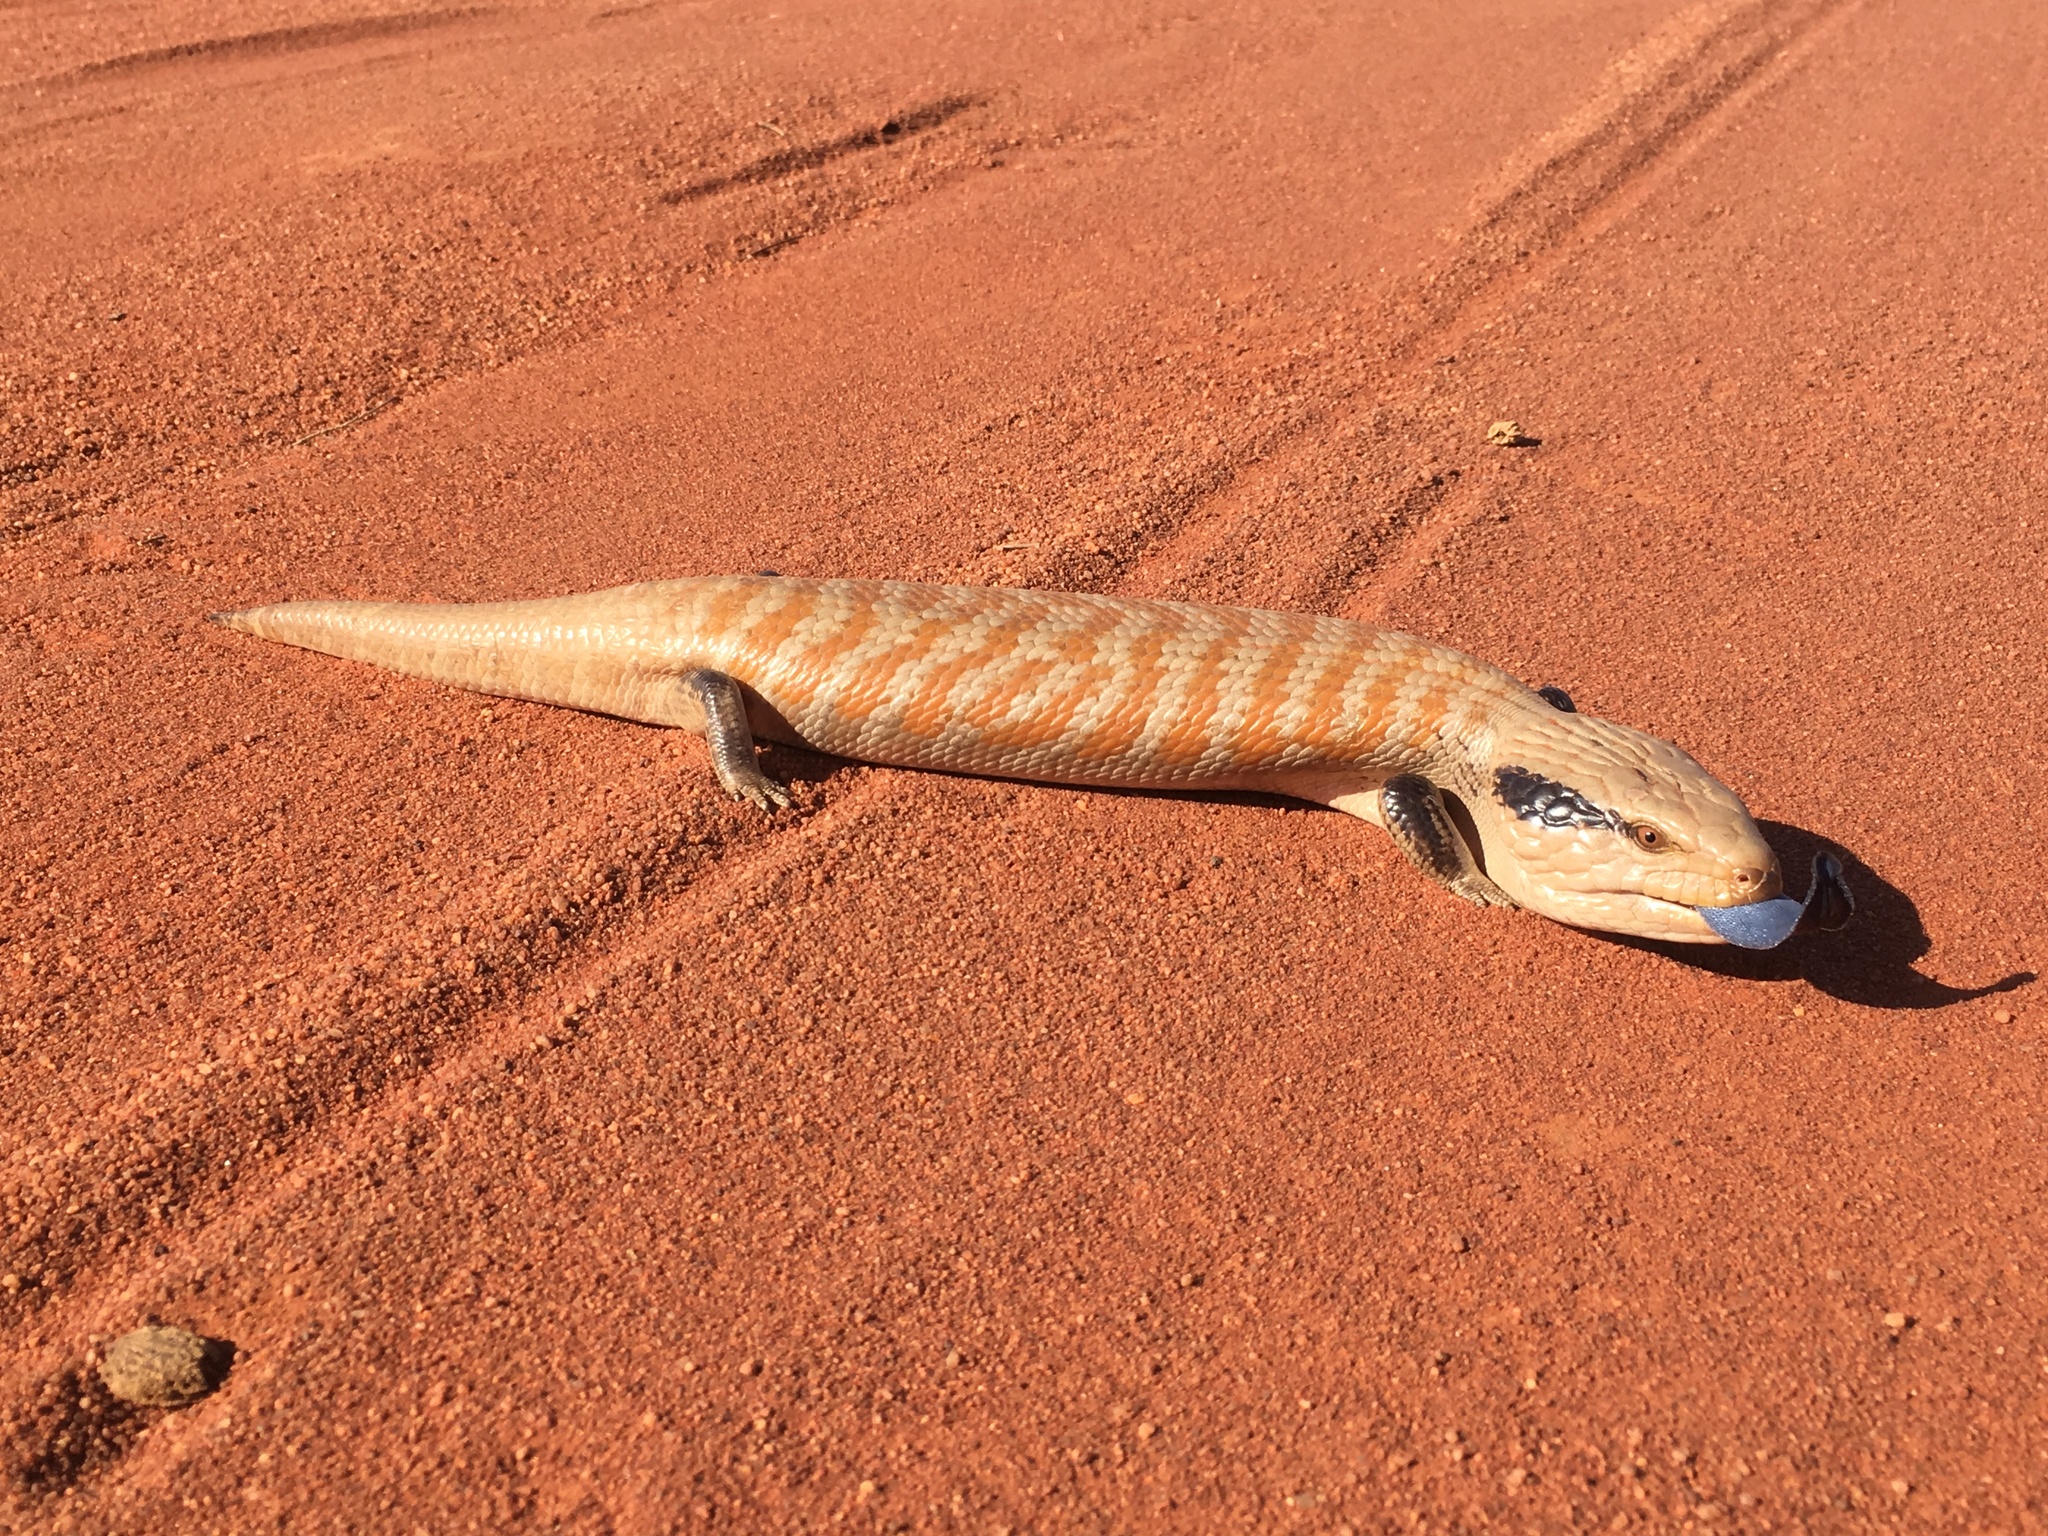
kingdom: Animalia
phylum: Chordata
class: Squamata
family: Scincidae
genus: Tiliqua
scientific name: Tiliqua multifasciata
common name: Centralian blue-tongued lizard
